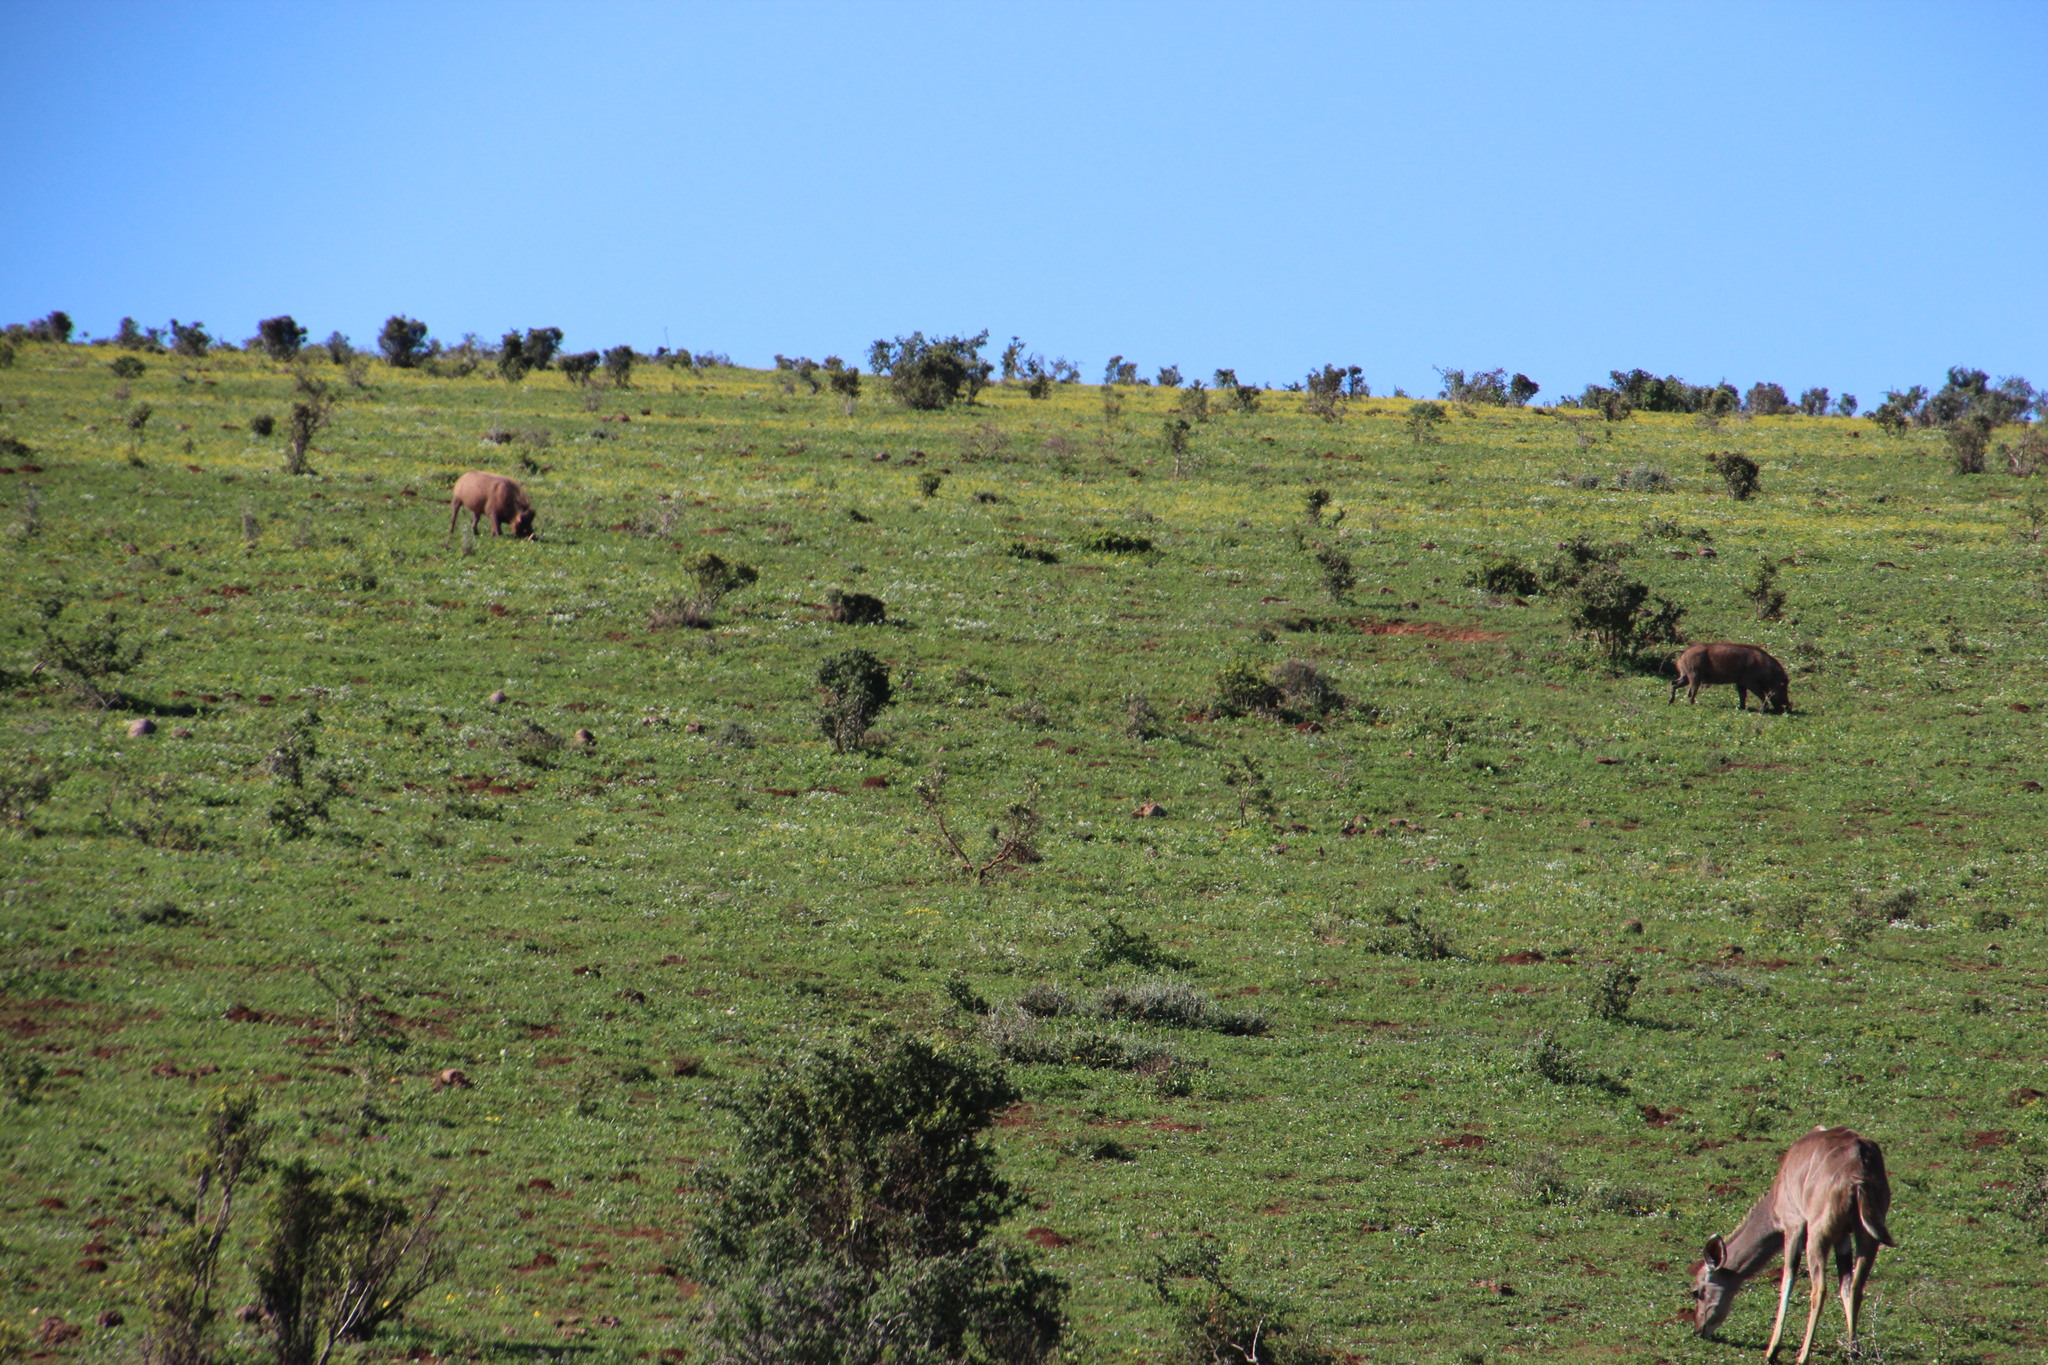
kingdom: Animalia
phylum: Chordata
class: Mammalia
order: Artiodactyla
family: Suidae
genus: Phacochoerus
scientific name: Phacochoerus africanus
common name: Common warthog
